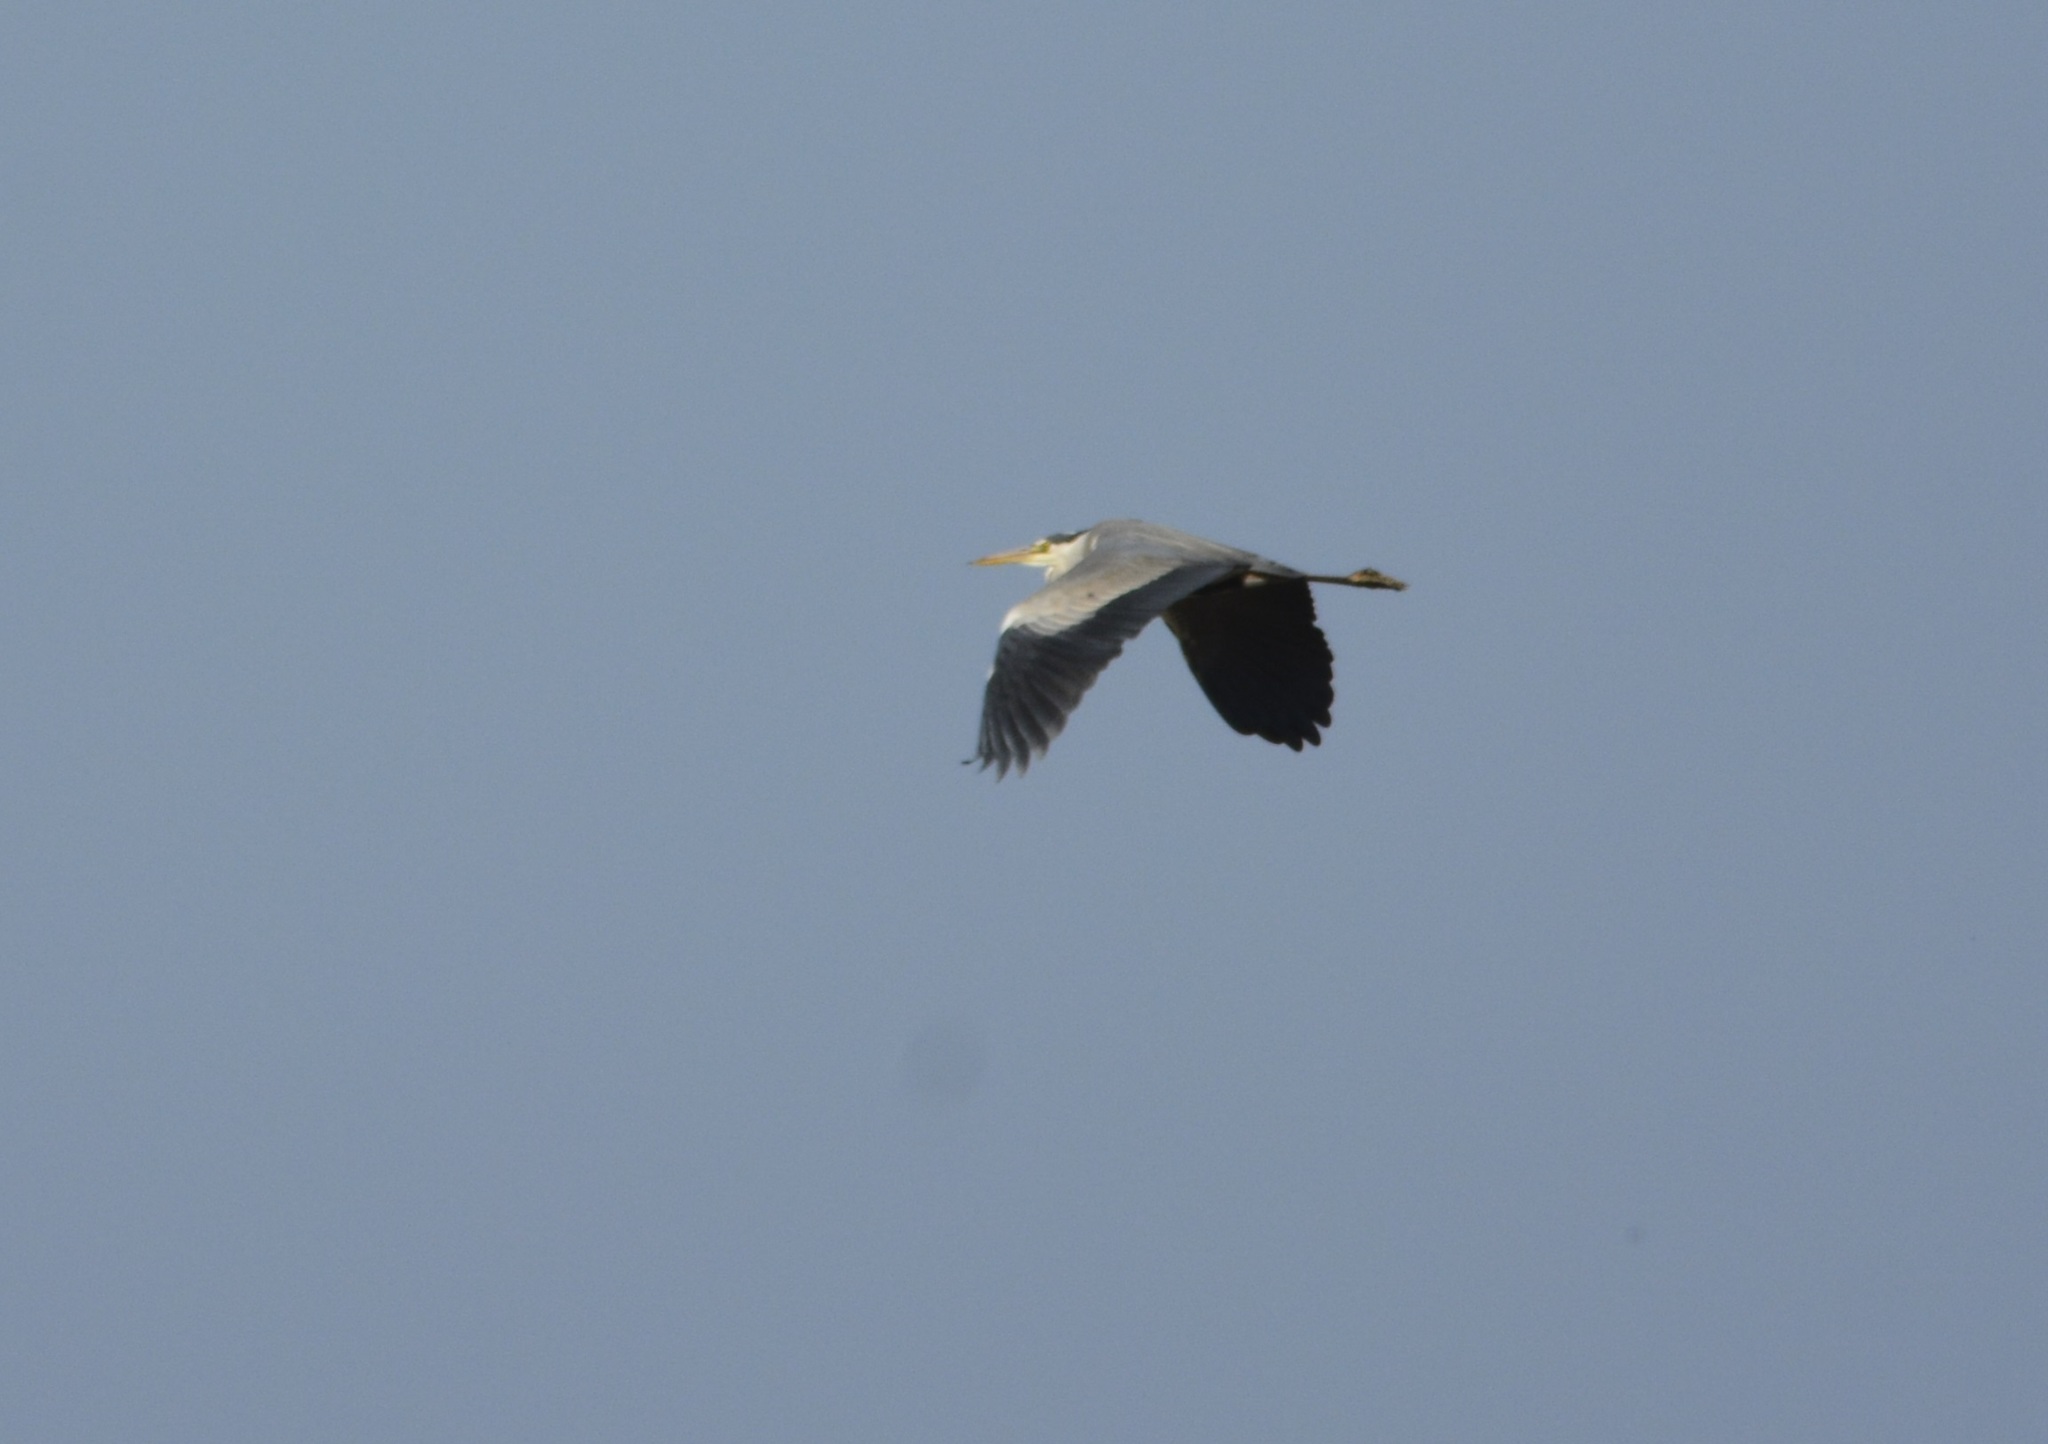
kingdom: Animalia
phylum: Chordata
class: Aves
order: Pelecaniformes
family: Ardeidae
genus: Ardea
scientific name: Ardea cinerea
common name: Grey heron
